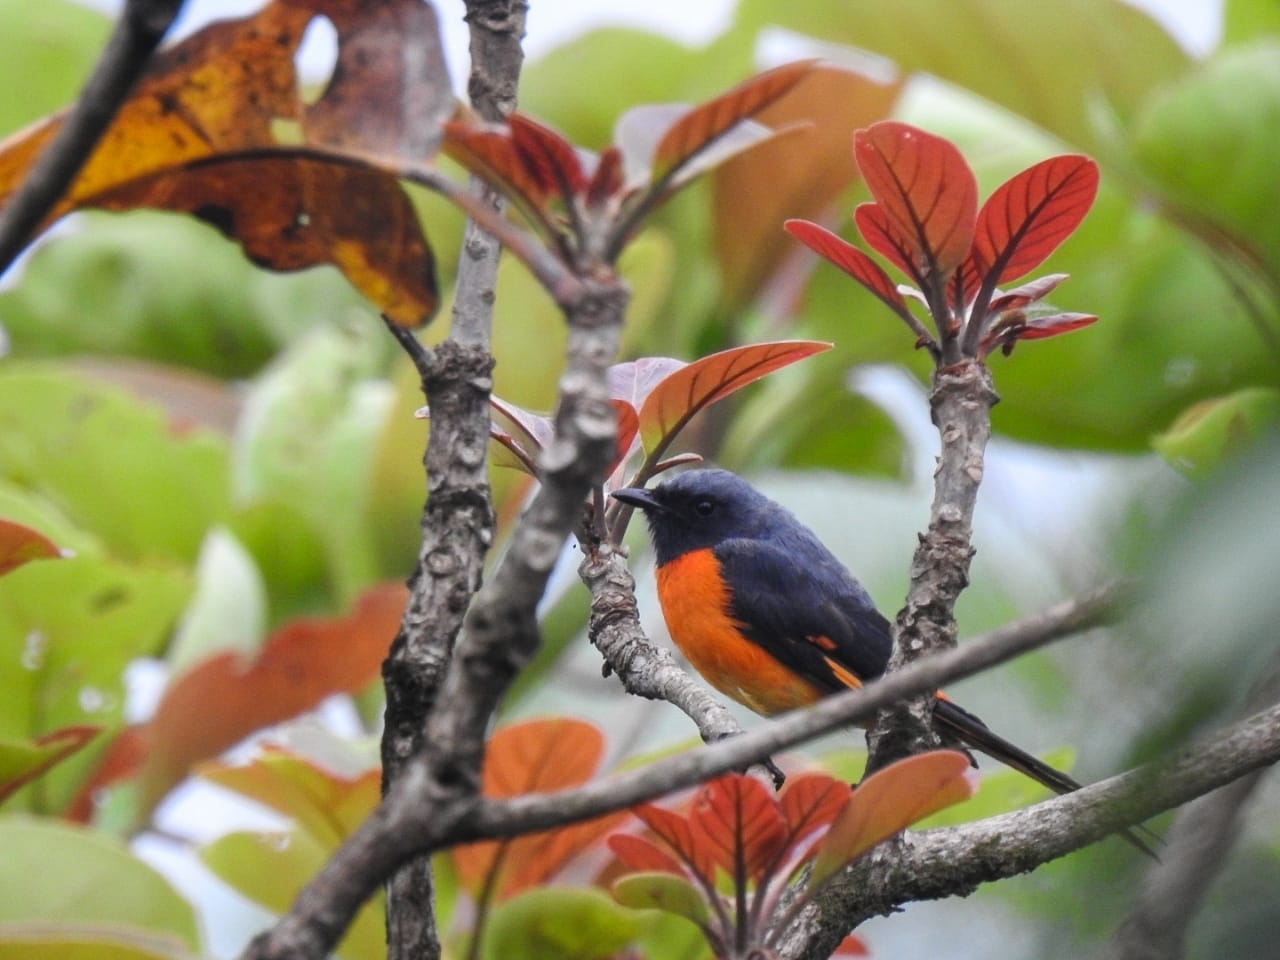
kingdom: Animalia
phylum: Chordata
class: Aves
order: Passeriformes
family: Campephagidae
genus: Pericrocotus
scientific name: Pericrocotus flammeus
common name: Orange minivet
